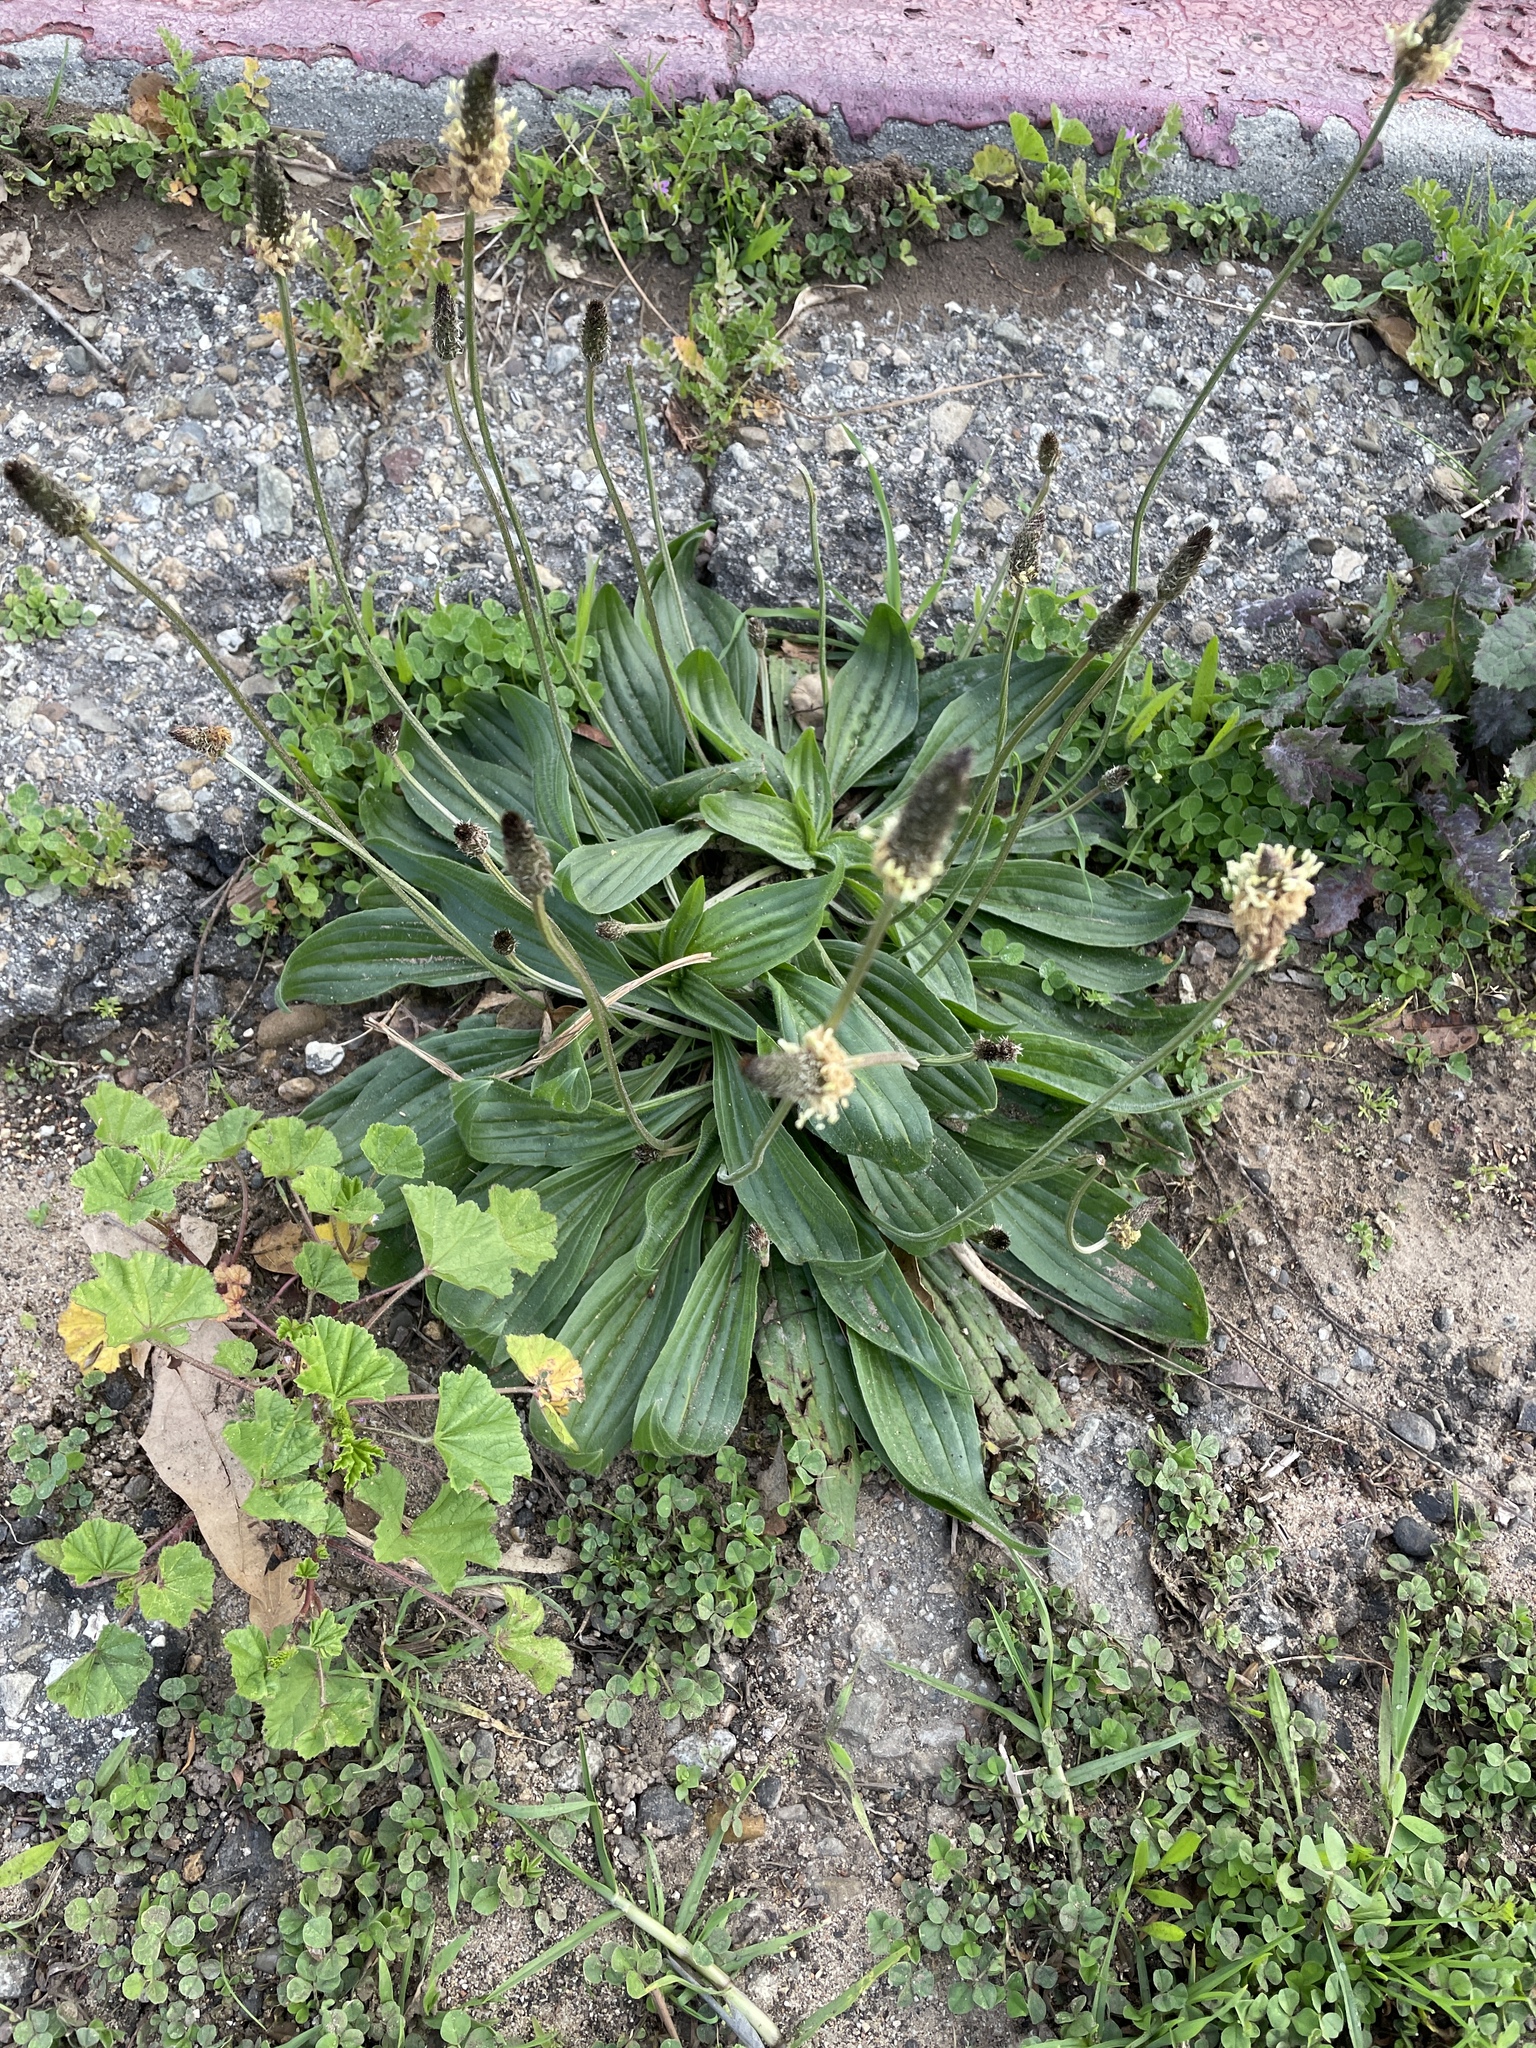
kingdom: Plantae
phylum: Tracheophyta
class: Magnoliopsida
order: Lamiales
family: Plantaginaceae
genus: Plantago
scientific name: Plantago lanceolata
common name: Ribwort plantain
